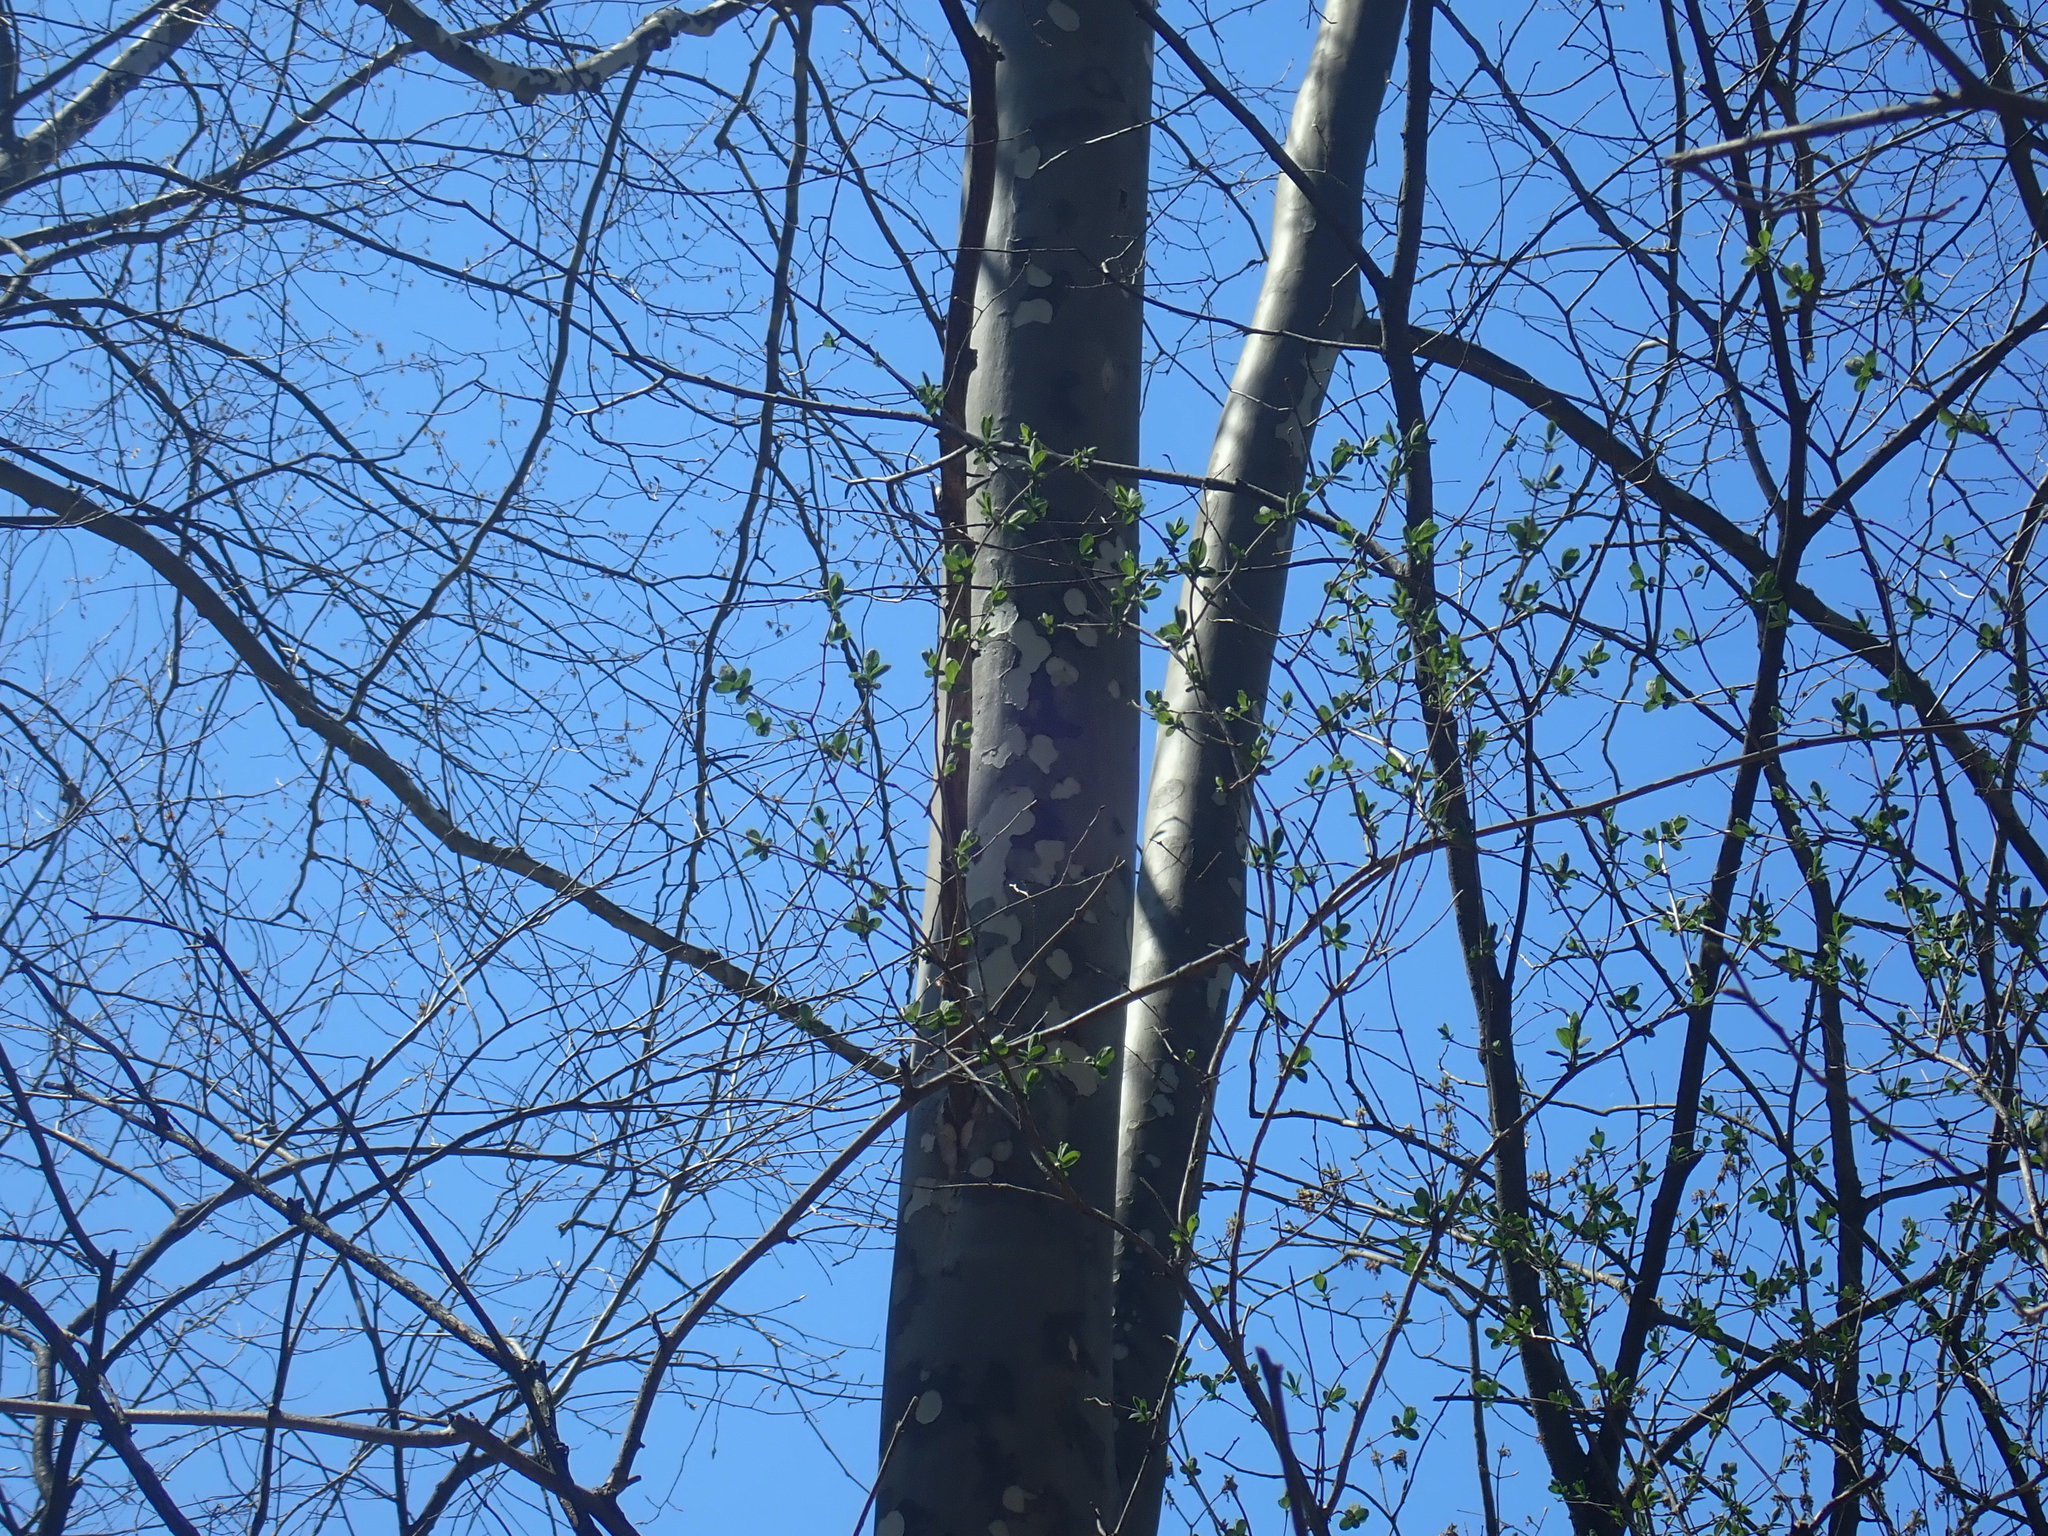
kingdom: Plantae
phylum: Tracheophyta
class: Magnoliopsida
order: Proteales
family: Platanaceae
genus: Platanus
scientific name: Platanus occidentalis
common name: American sycamore
